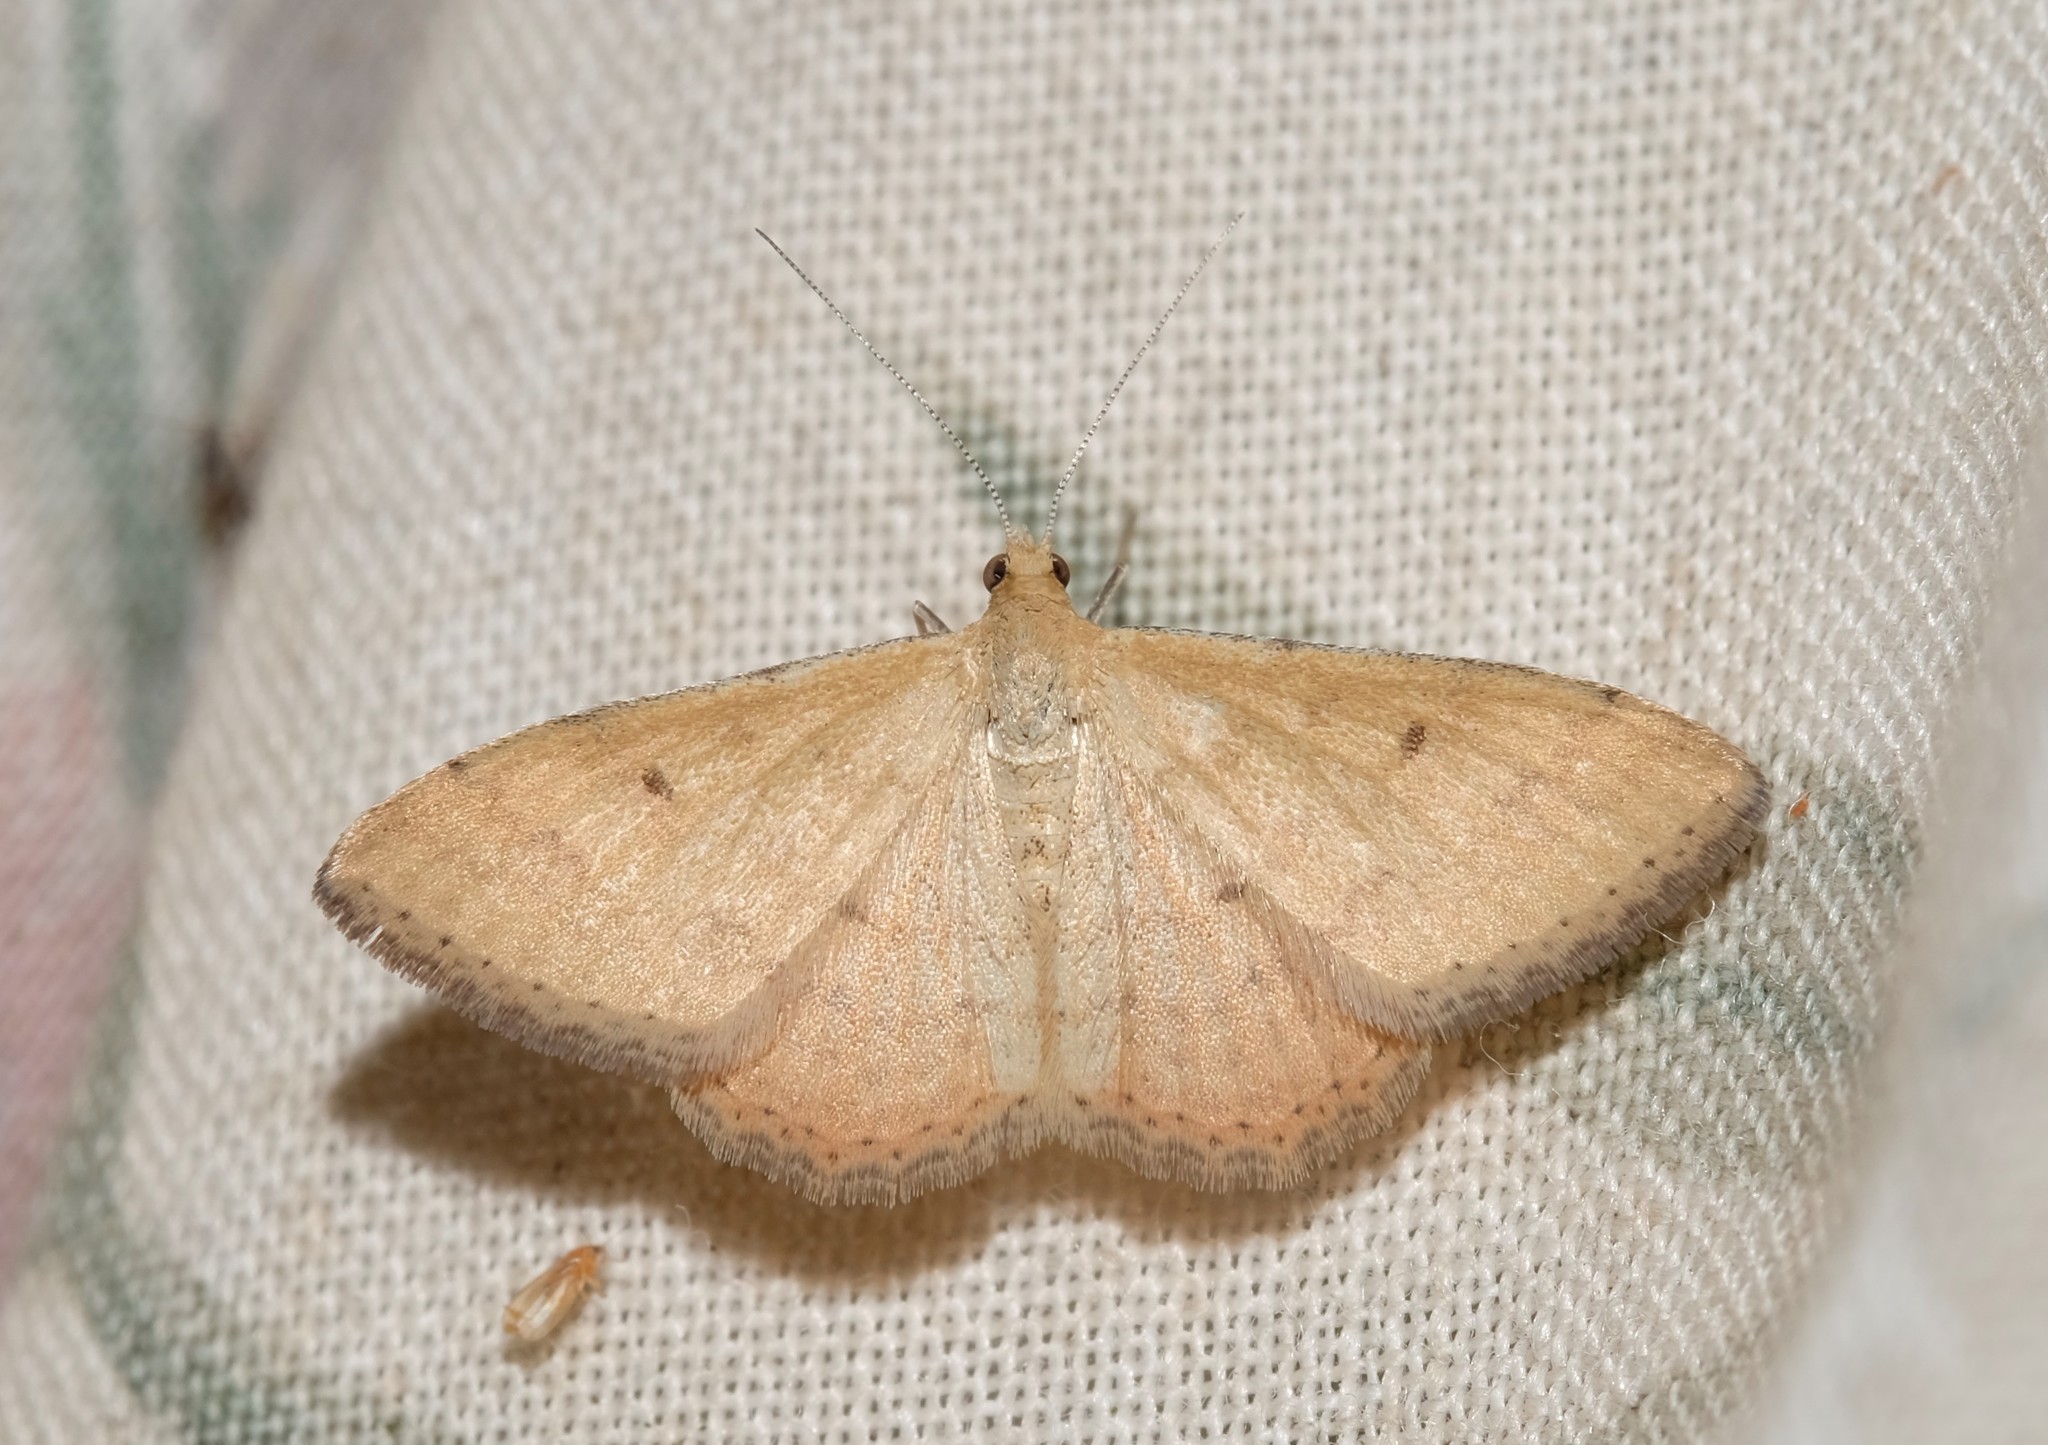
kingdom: Animalia
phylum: Arthropoda
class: Insecta
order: Lepidoptera
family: Geometridae
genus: Scopula
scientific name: Scopula rubraria
